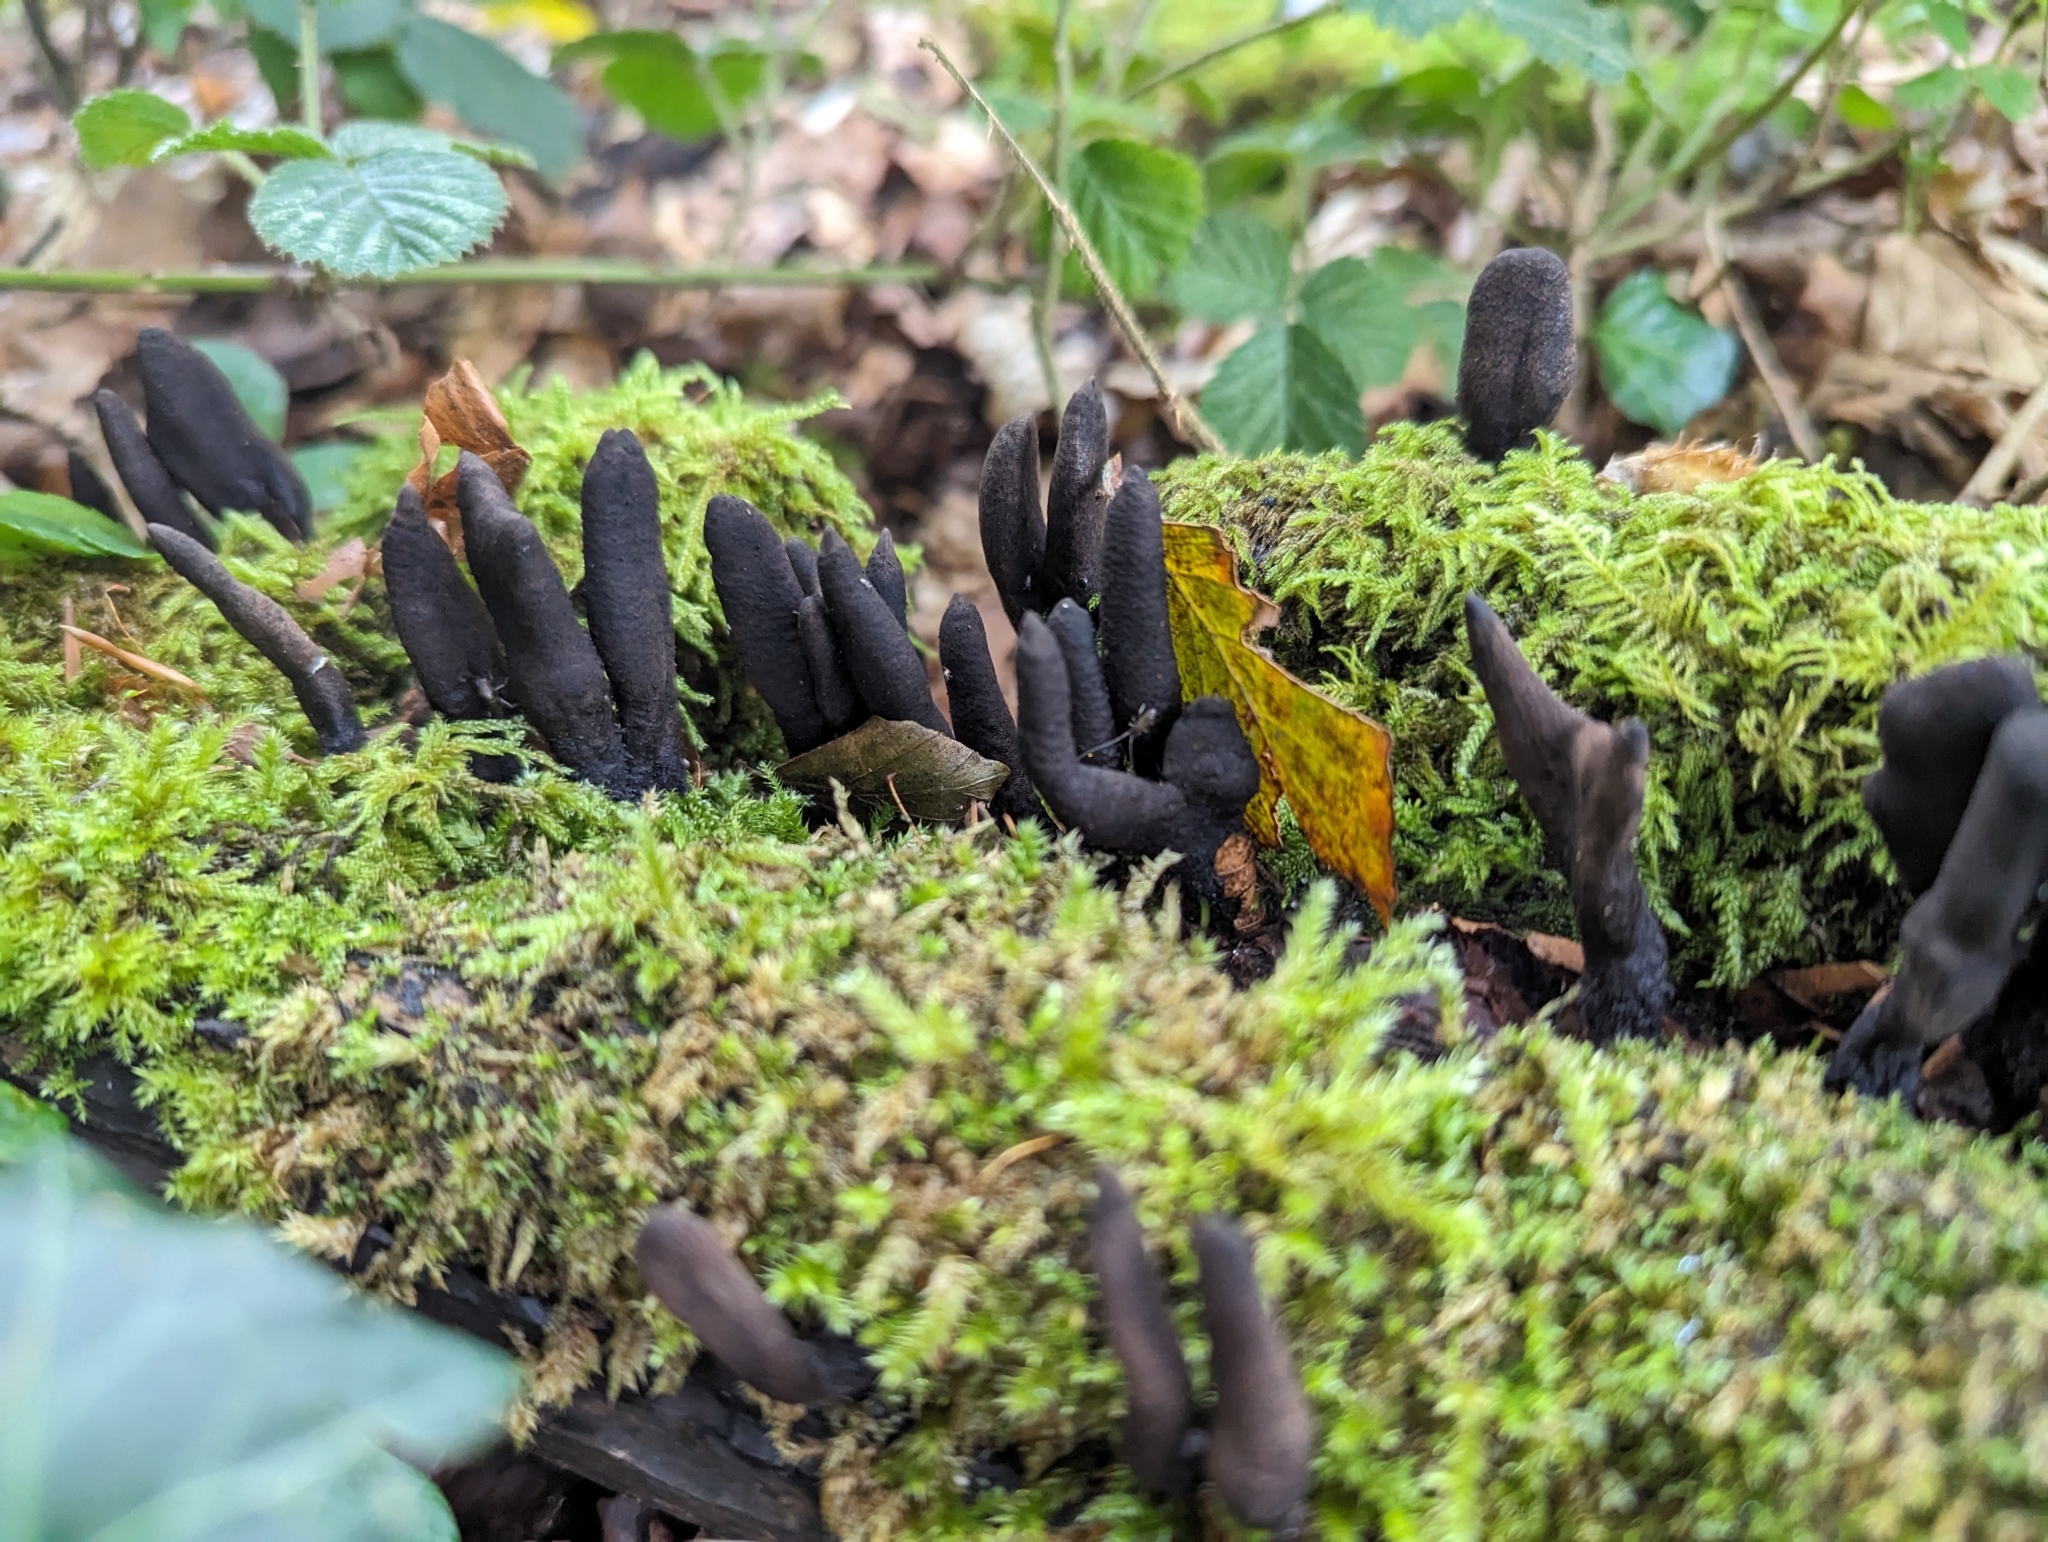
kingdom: Fungi
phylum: Ascomycota
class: Sordariomycetes
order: Xylariales
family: Xylariaceae
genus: Xylaria
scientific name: Xylaria longipes
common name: Dead moll's fingers
